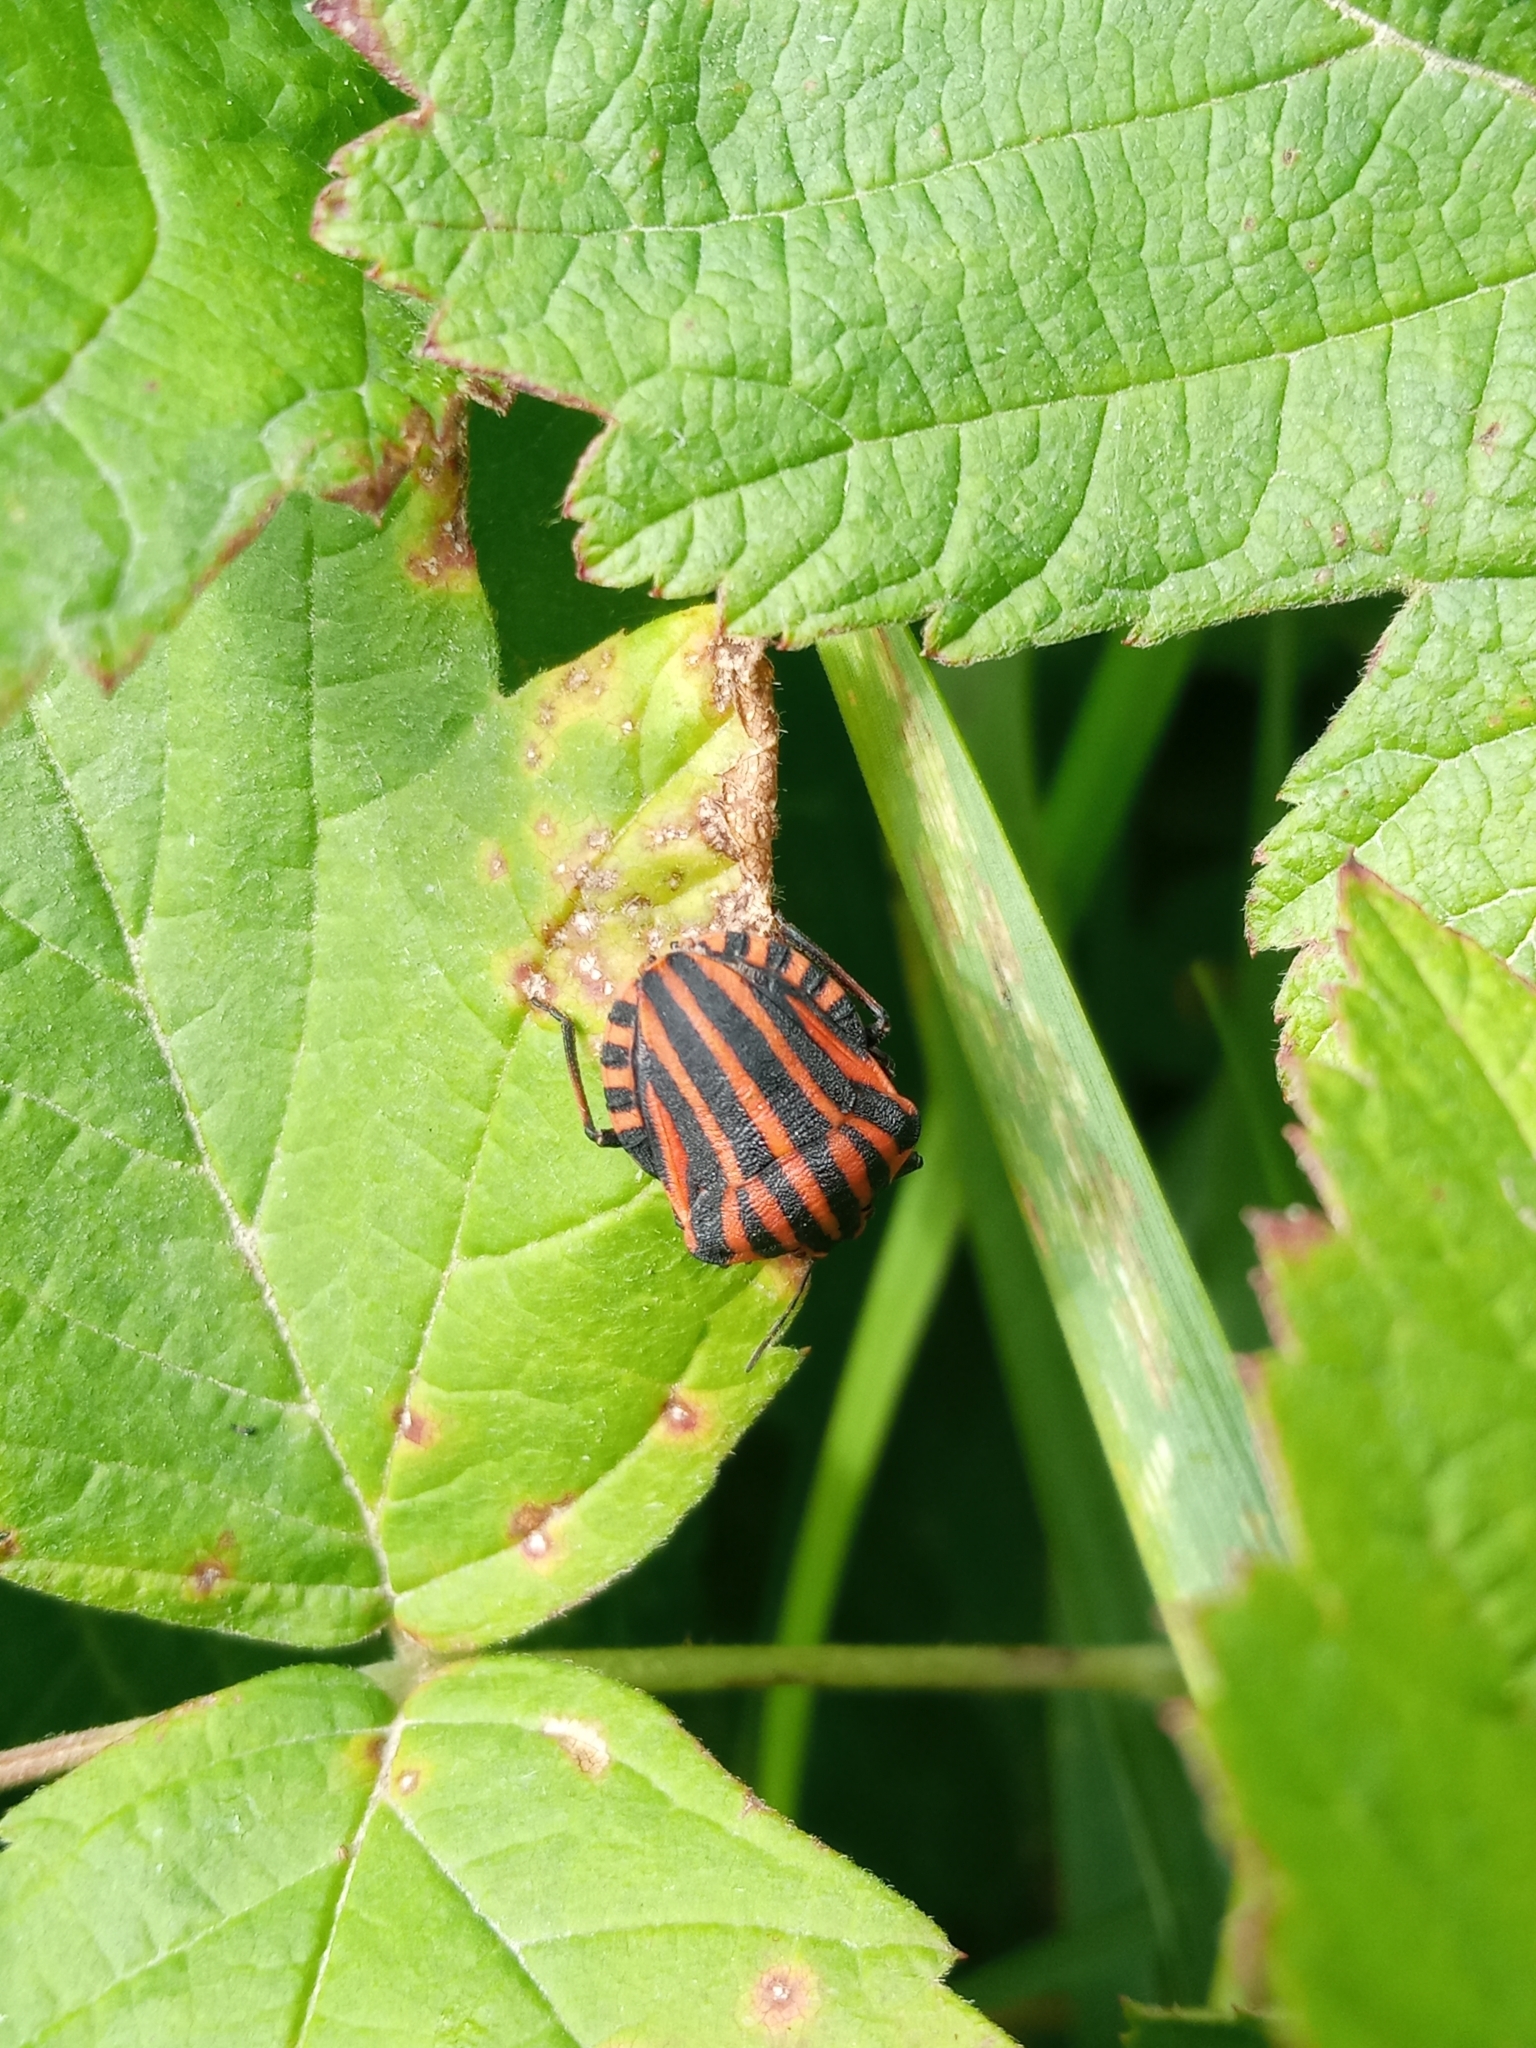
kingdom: Animalia
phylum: Arthropoda
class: Insecta
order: Hemiptera
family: Pentatomidae
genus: Graphosoma
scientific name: Graphosoma italicum
